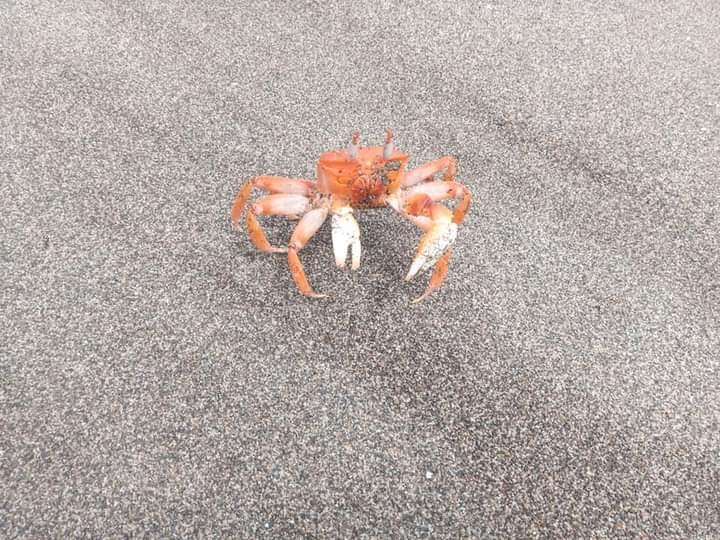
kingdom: Animalia
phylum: Arthropoda
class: Malacostraca
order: Decapoda
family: Ocypodidae
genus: Ocypode
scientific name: Ocypode gaudichaudii
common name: Pacific ghost crab
